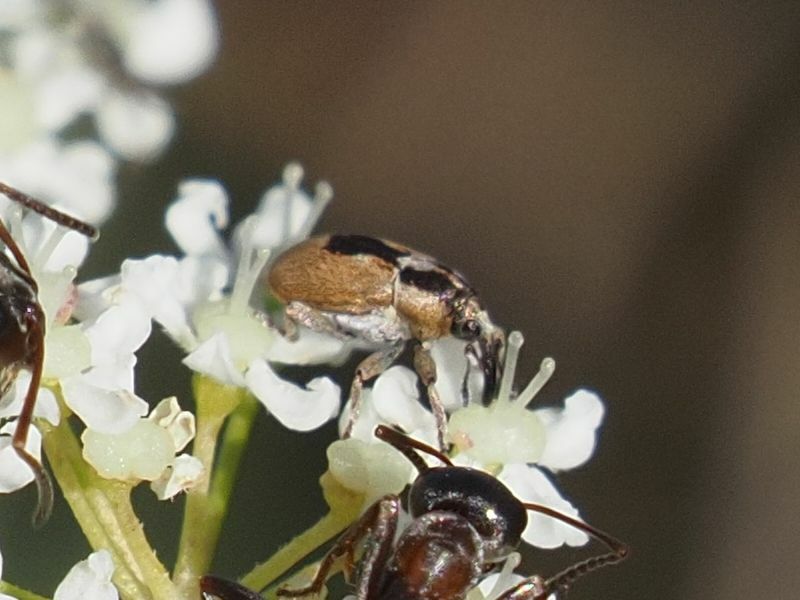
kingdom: Animalia
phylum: Arthropoda
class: Insecta
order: Coleoptera
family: Curculionidae
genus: Sibinia
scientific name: Sibinia phalerata
